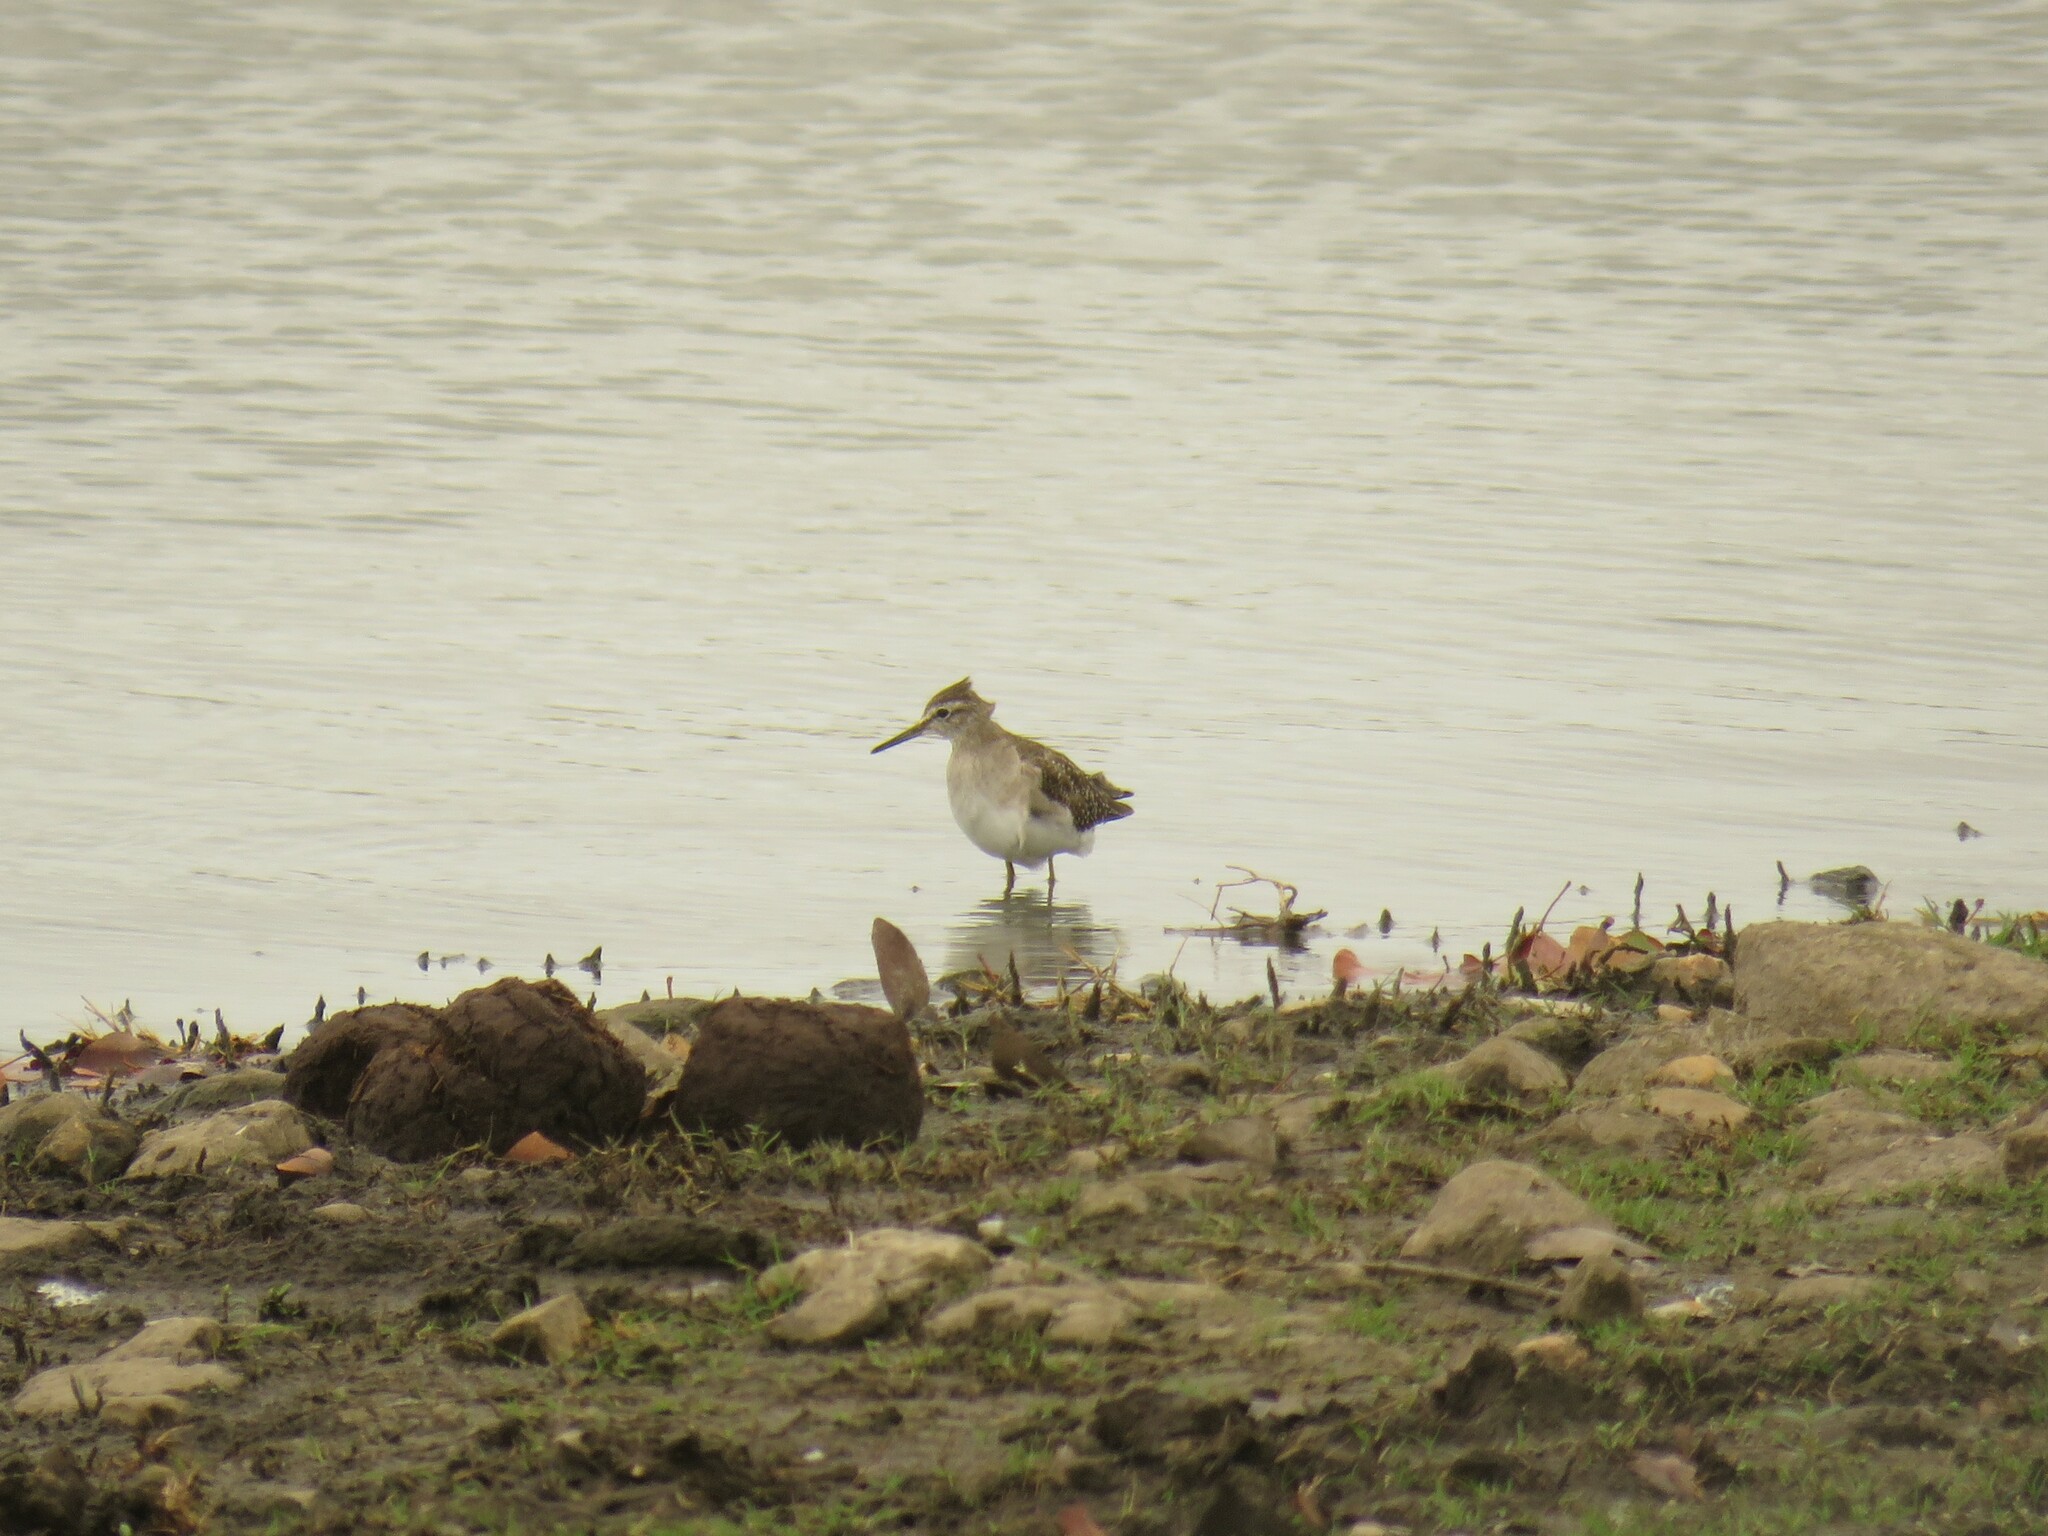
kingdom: Animalia
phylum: Chordata
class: Aves
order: Charadriiformes
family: Scolopacidae
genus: Tringa
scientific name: Tringa glareola
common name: Wood sandpiper
